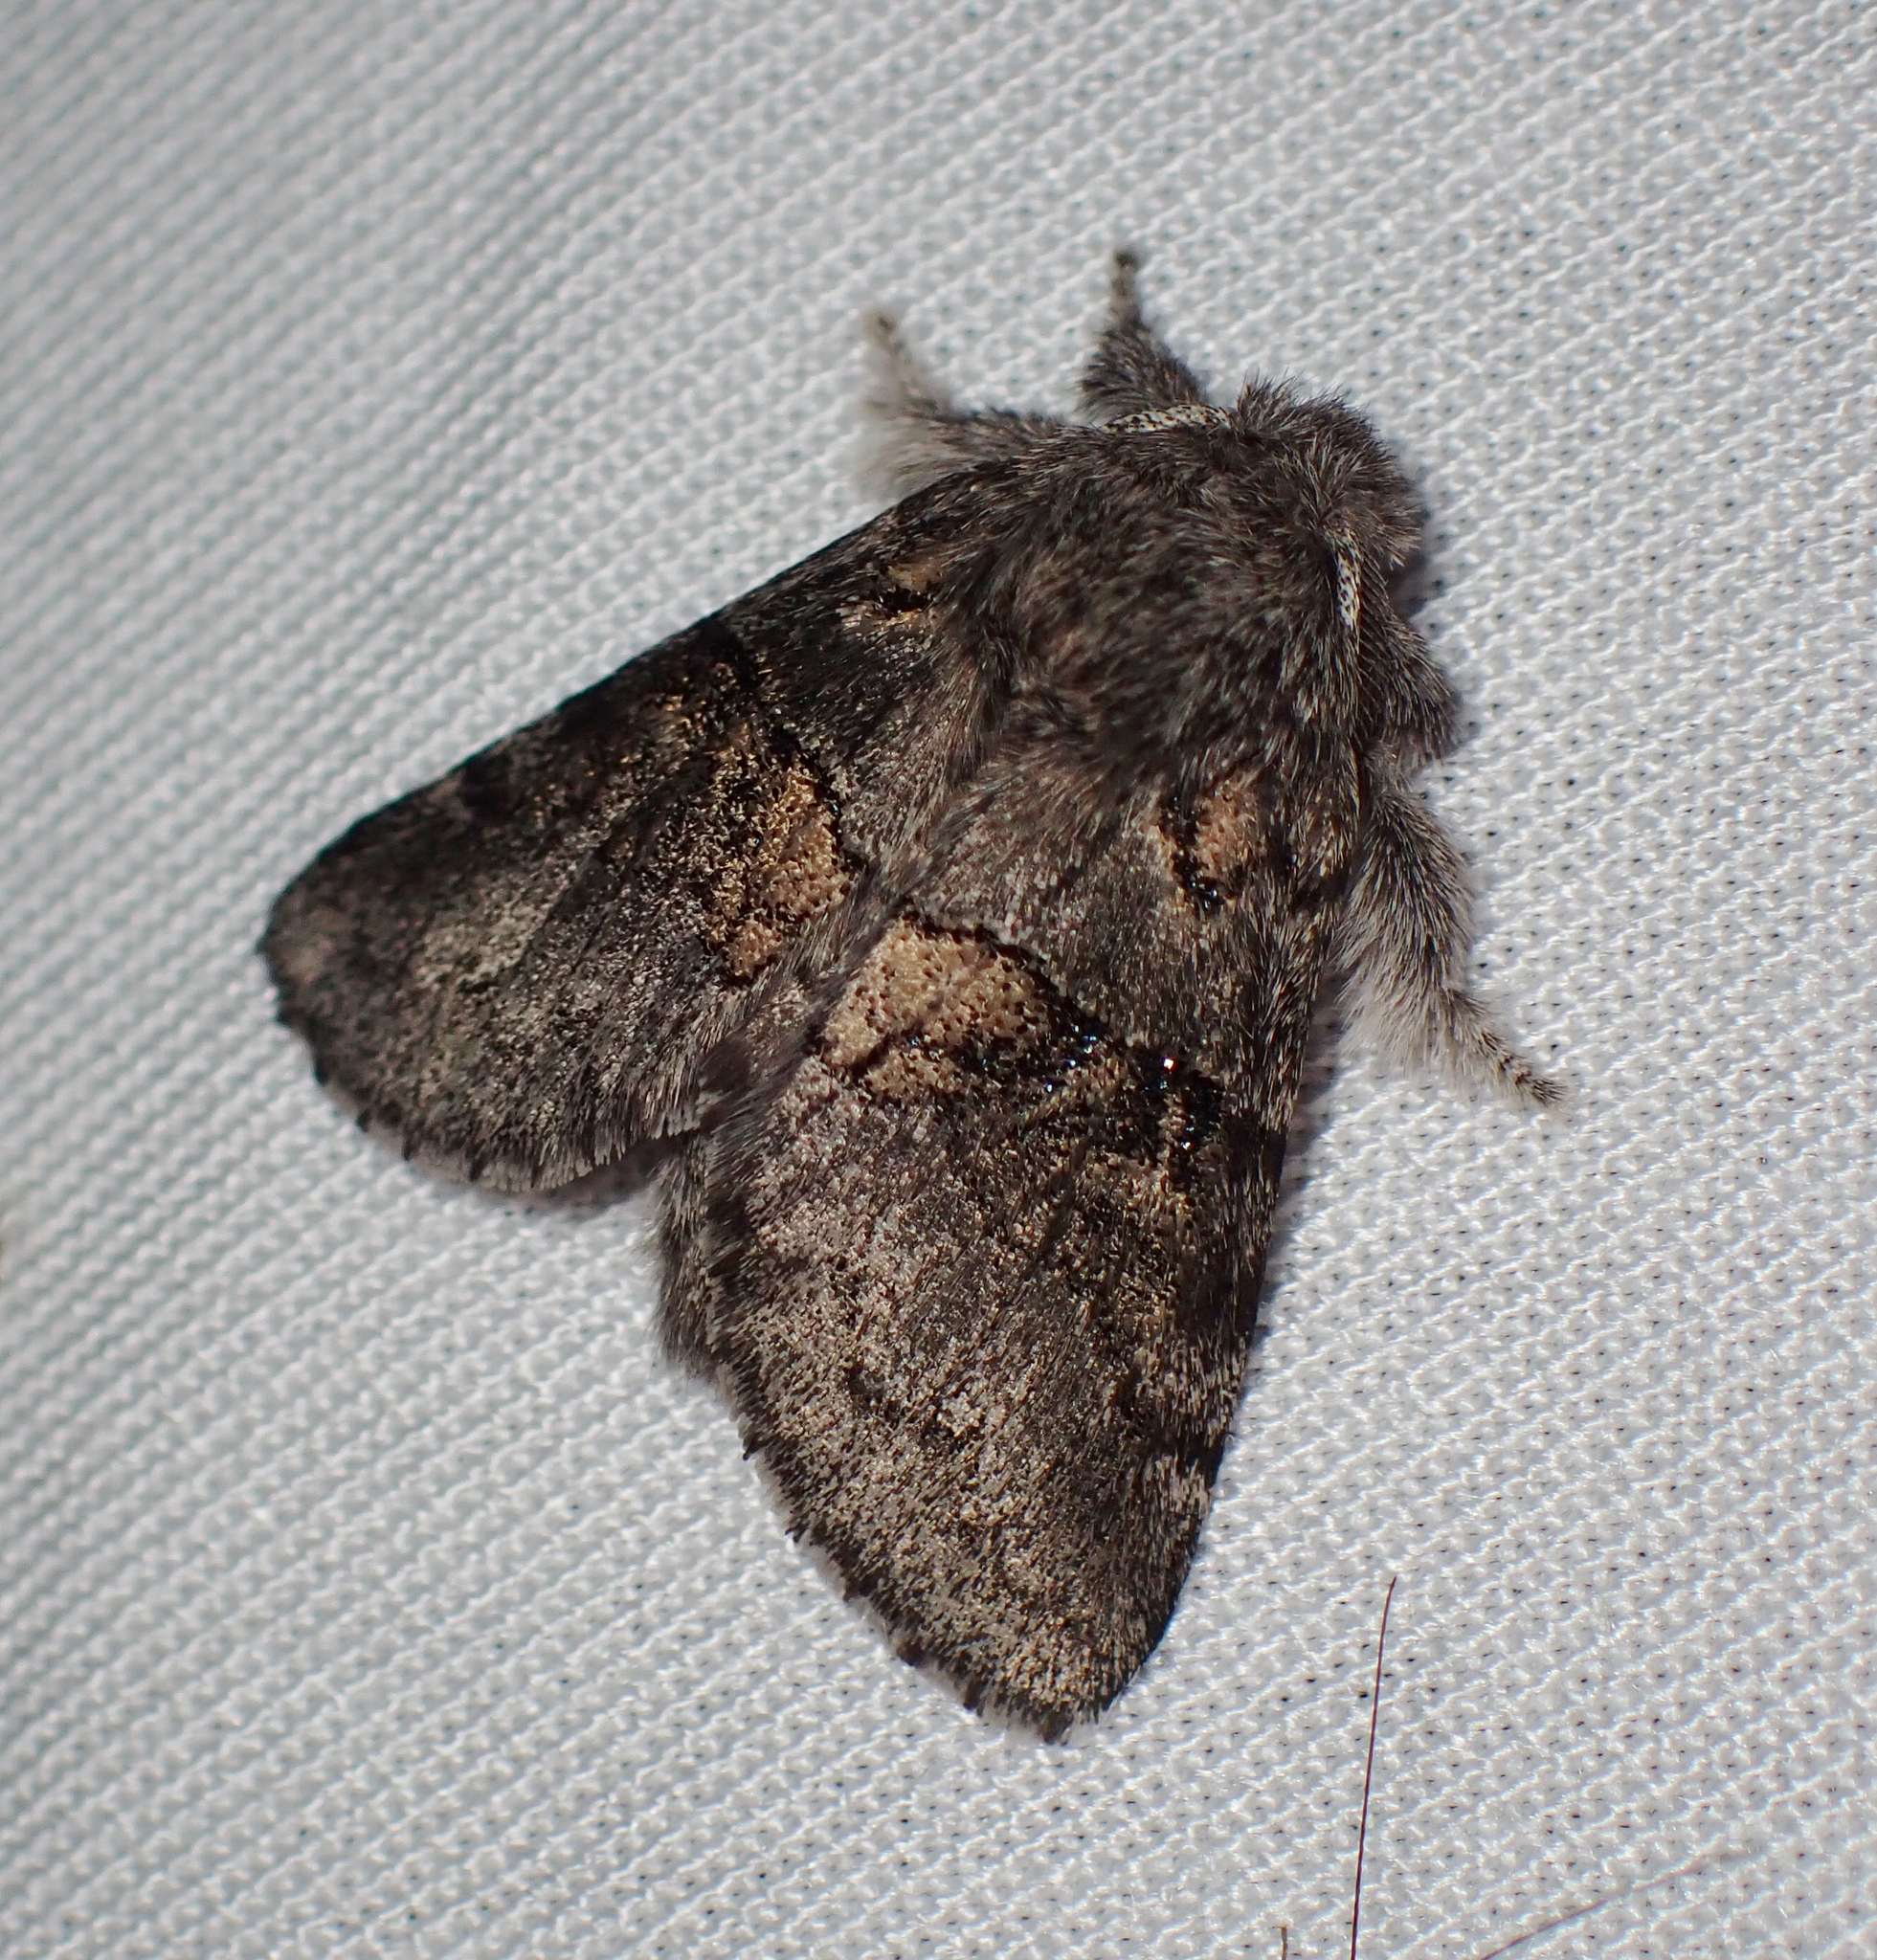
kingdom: Animalia
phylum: Arthropoda
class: Insecta
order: Lepidoptera
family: Notodontidae
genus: Gluphisia
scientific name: Gluphisia septentrionis
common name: Common gluphisia
